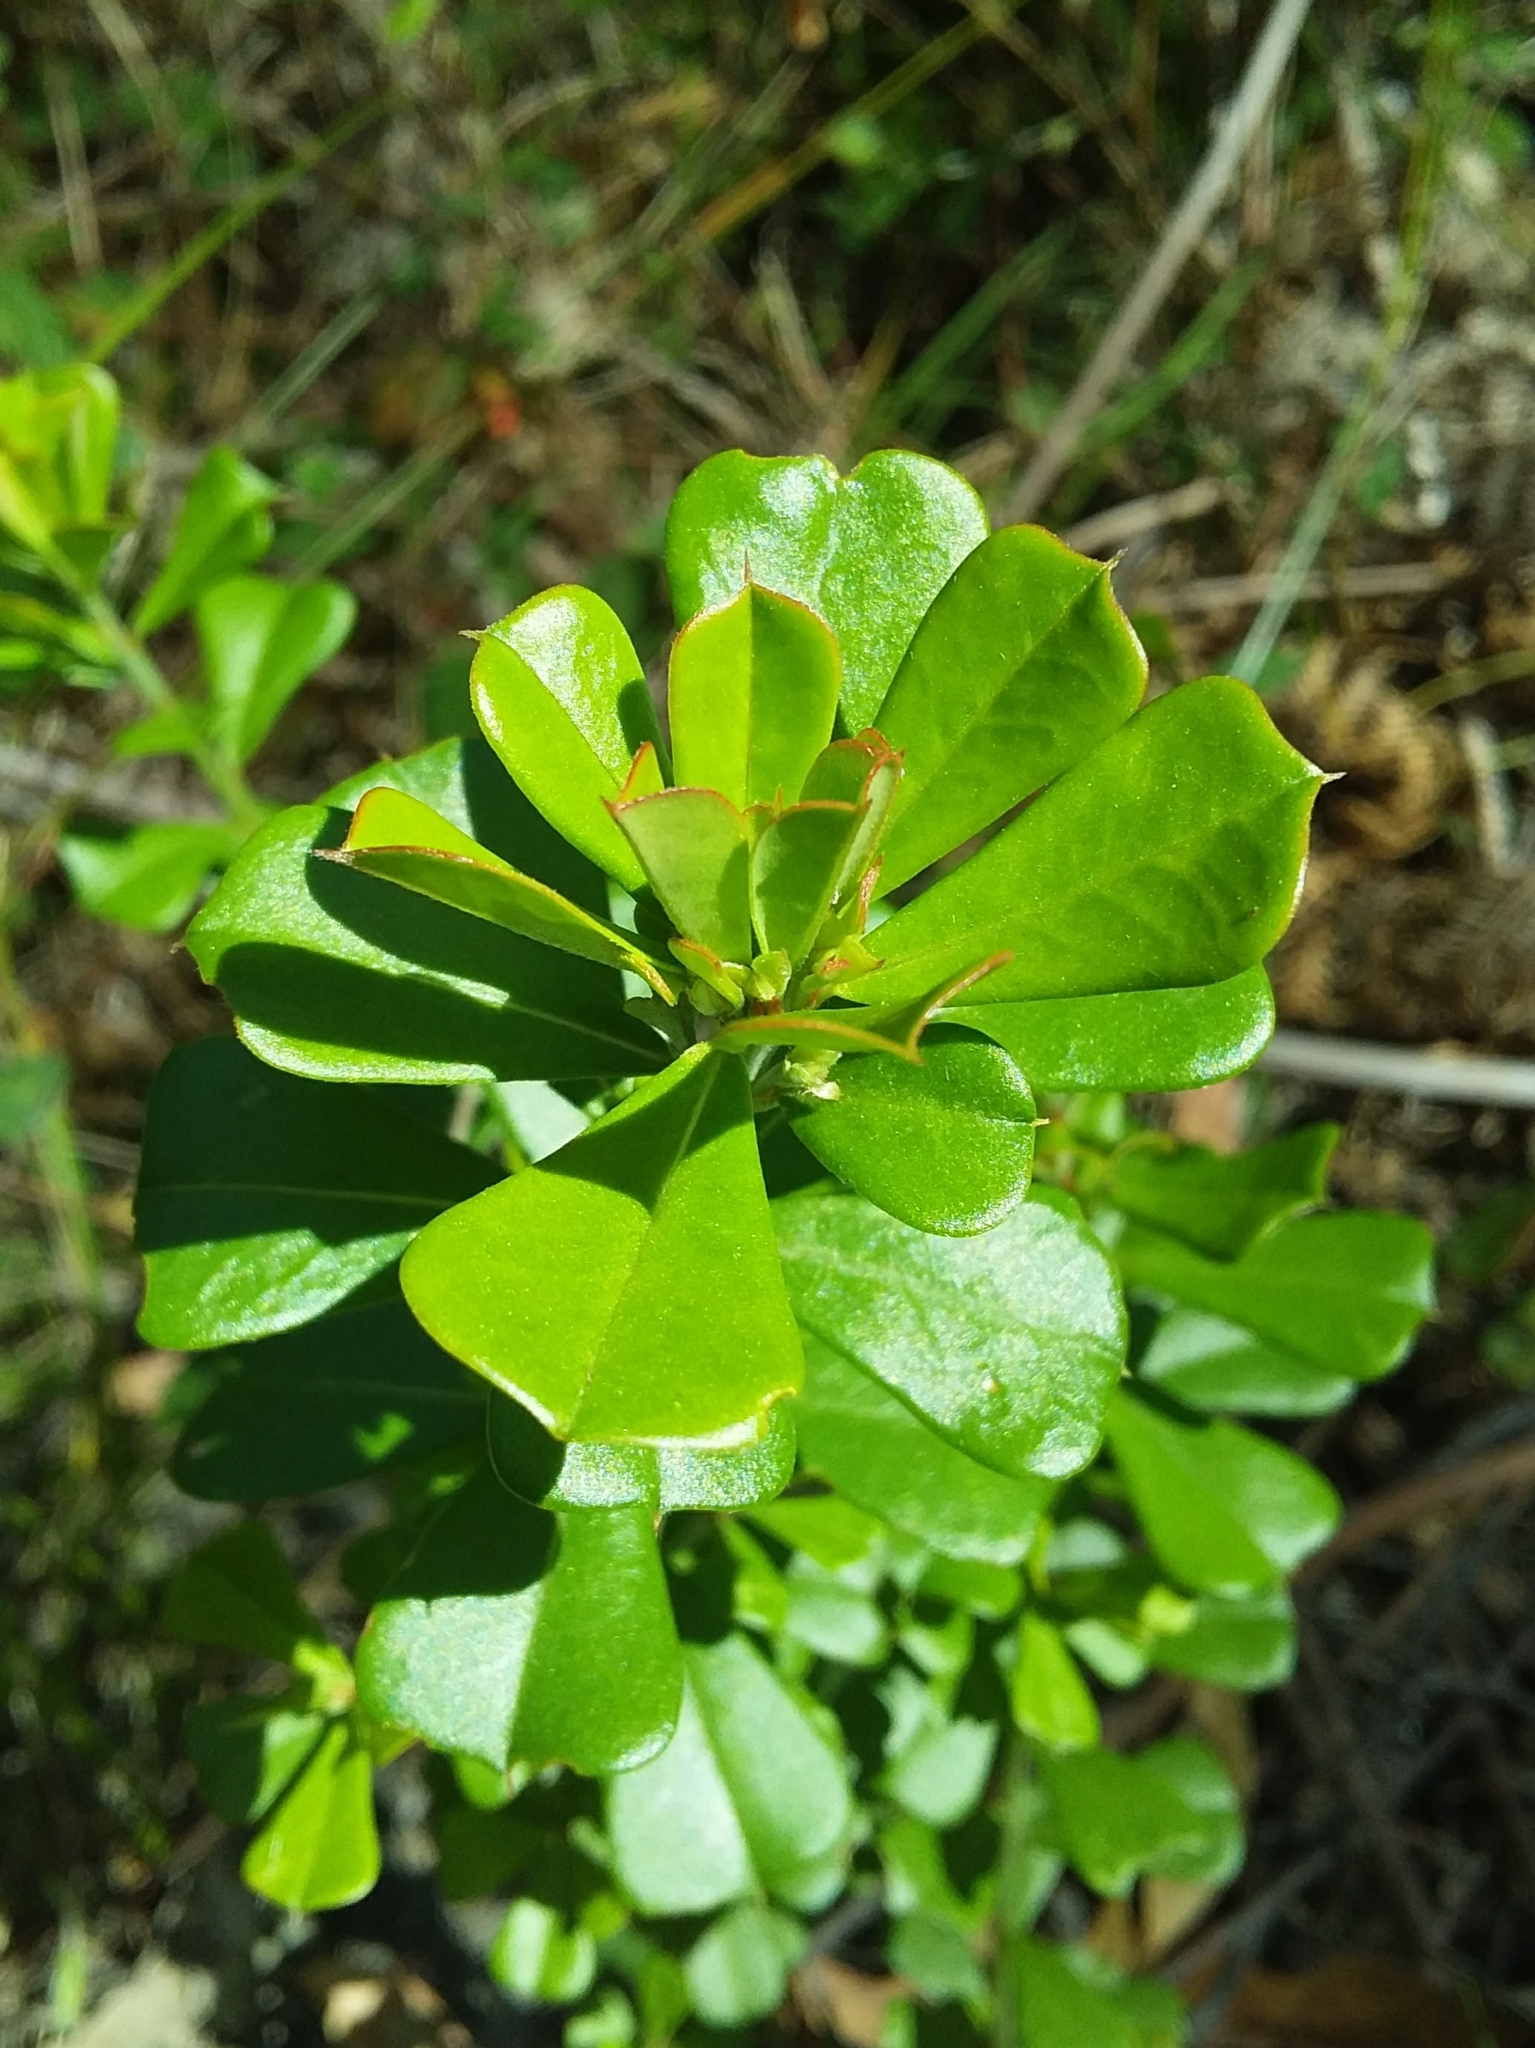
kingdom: Plantae
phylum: Tracheophyta
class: Magnoliopsida
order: Fabales
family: Fabaceae
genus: Pultenaea
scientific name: Pultenaea daphnoides
